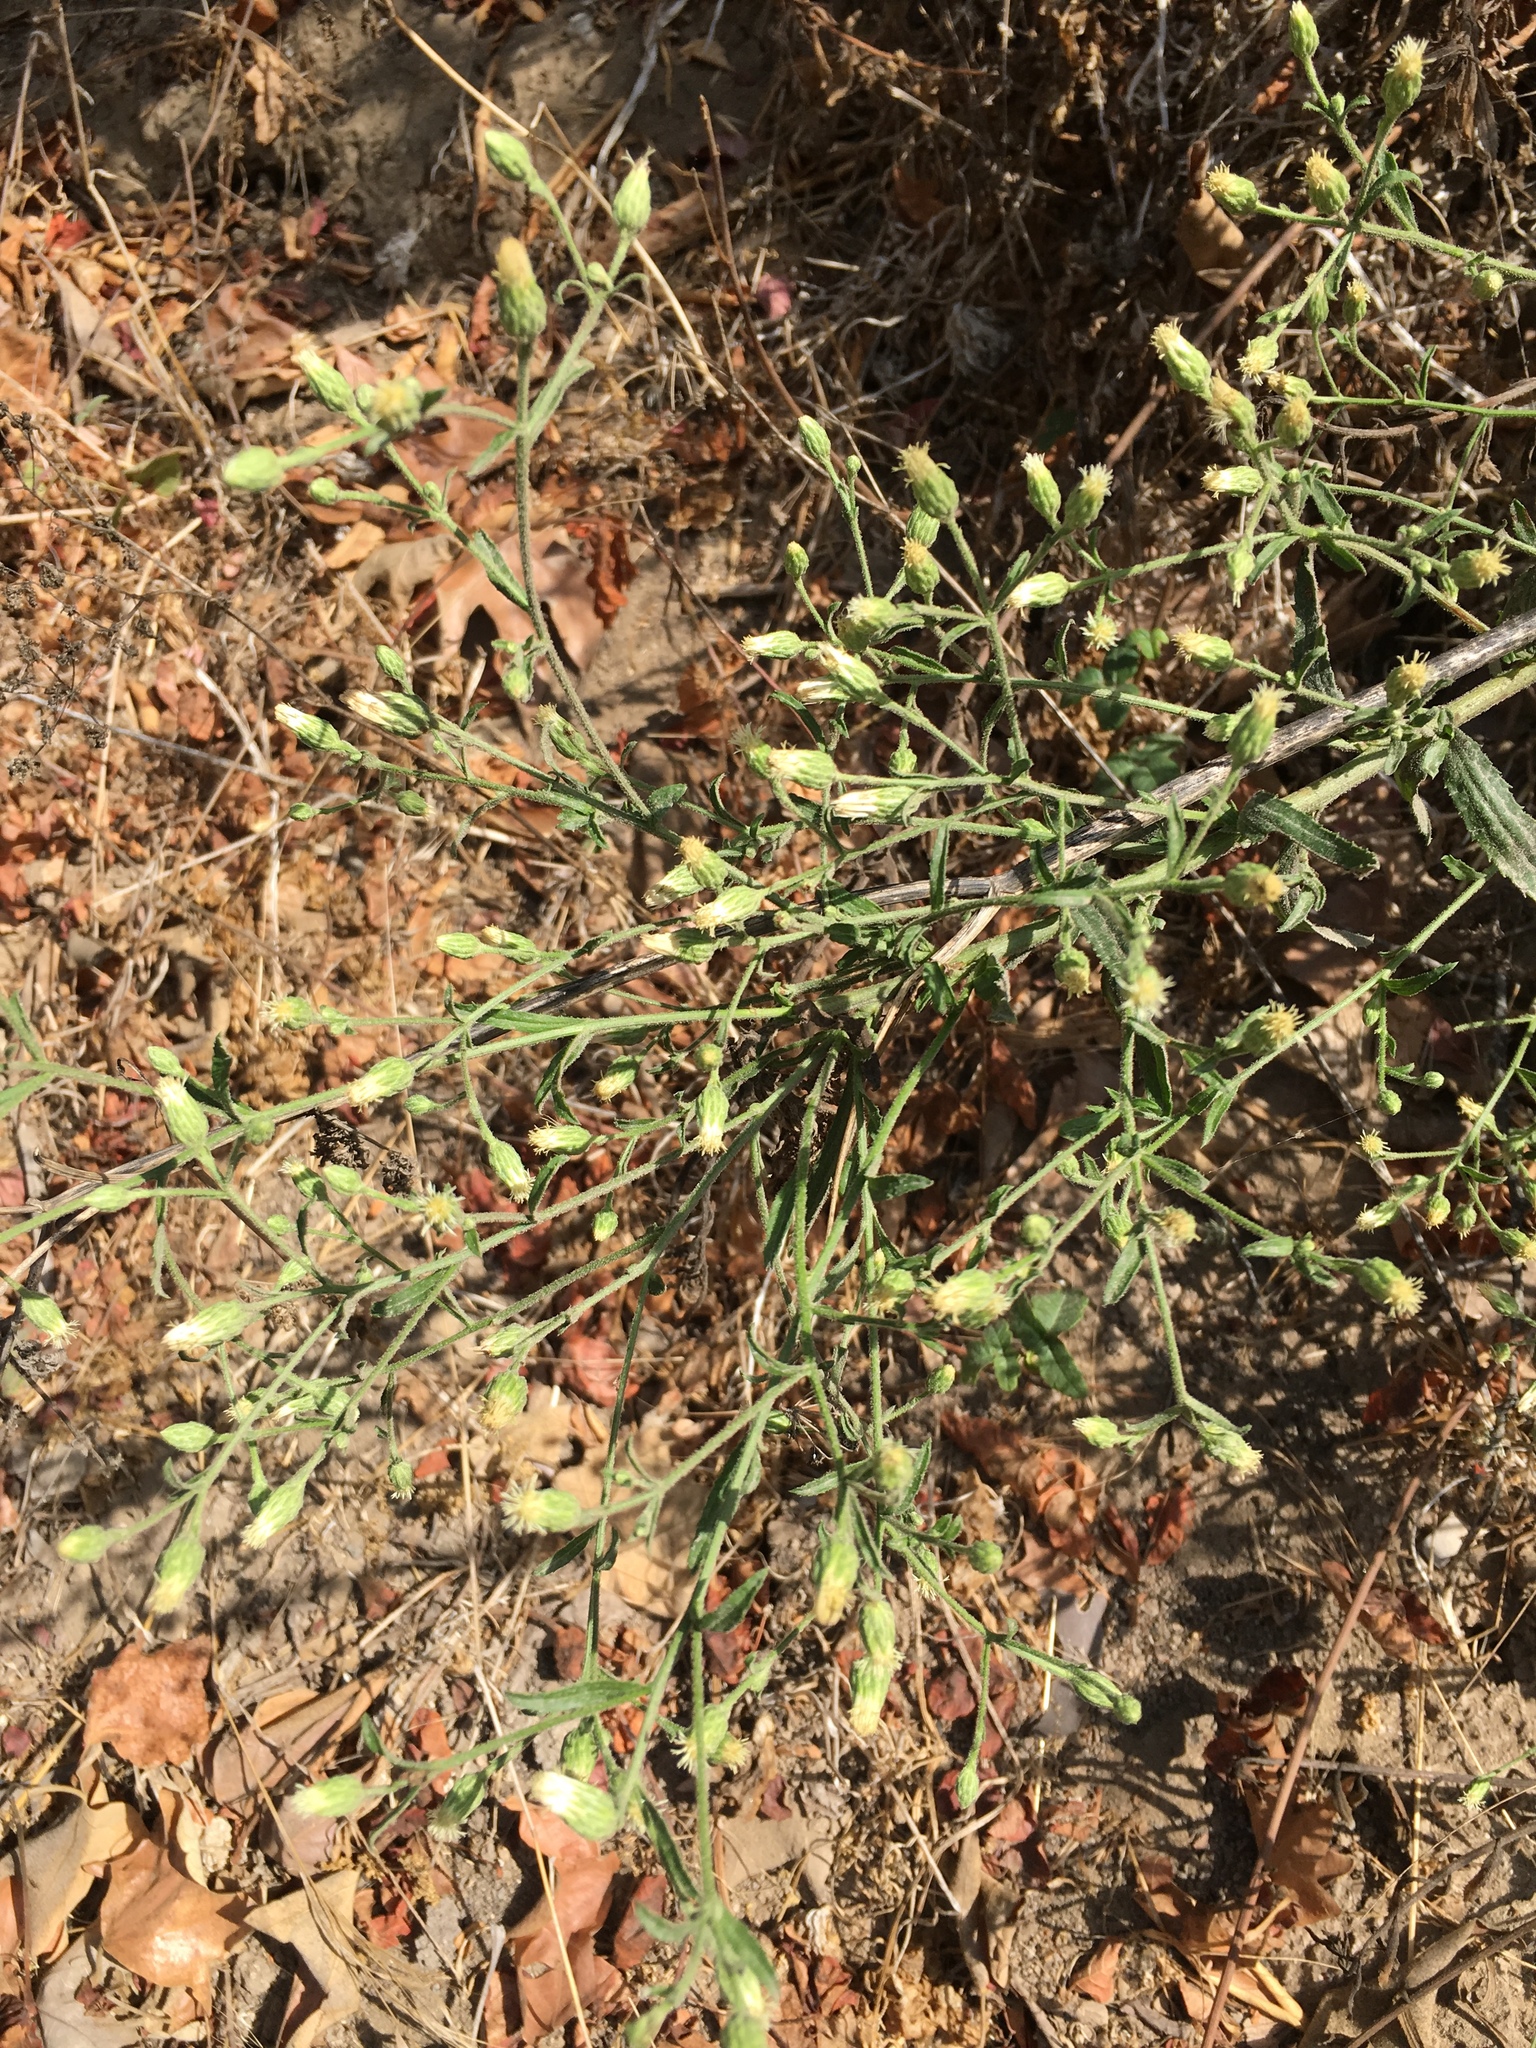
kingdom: Plantae
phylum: Tracheophyta
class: Magnoliopsida
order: Asterales
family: Asteraceae
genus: Baccharis
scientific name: Baccharis plummerae
